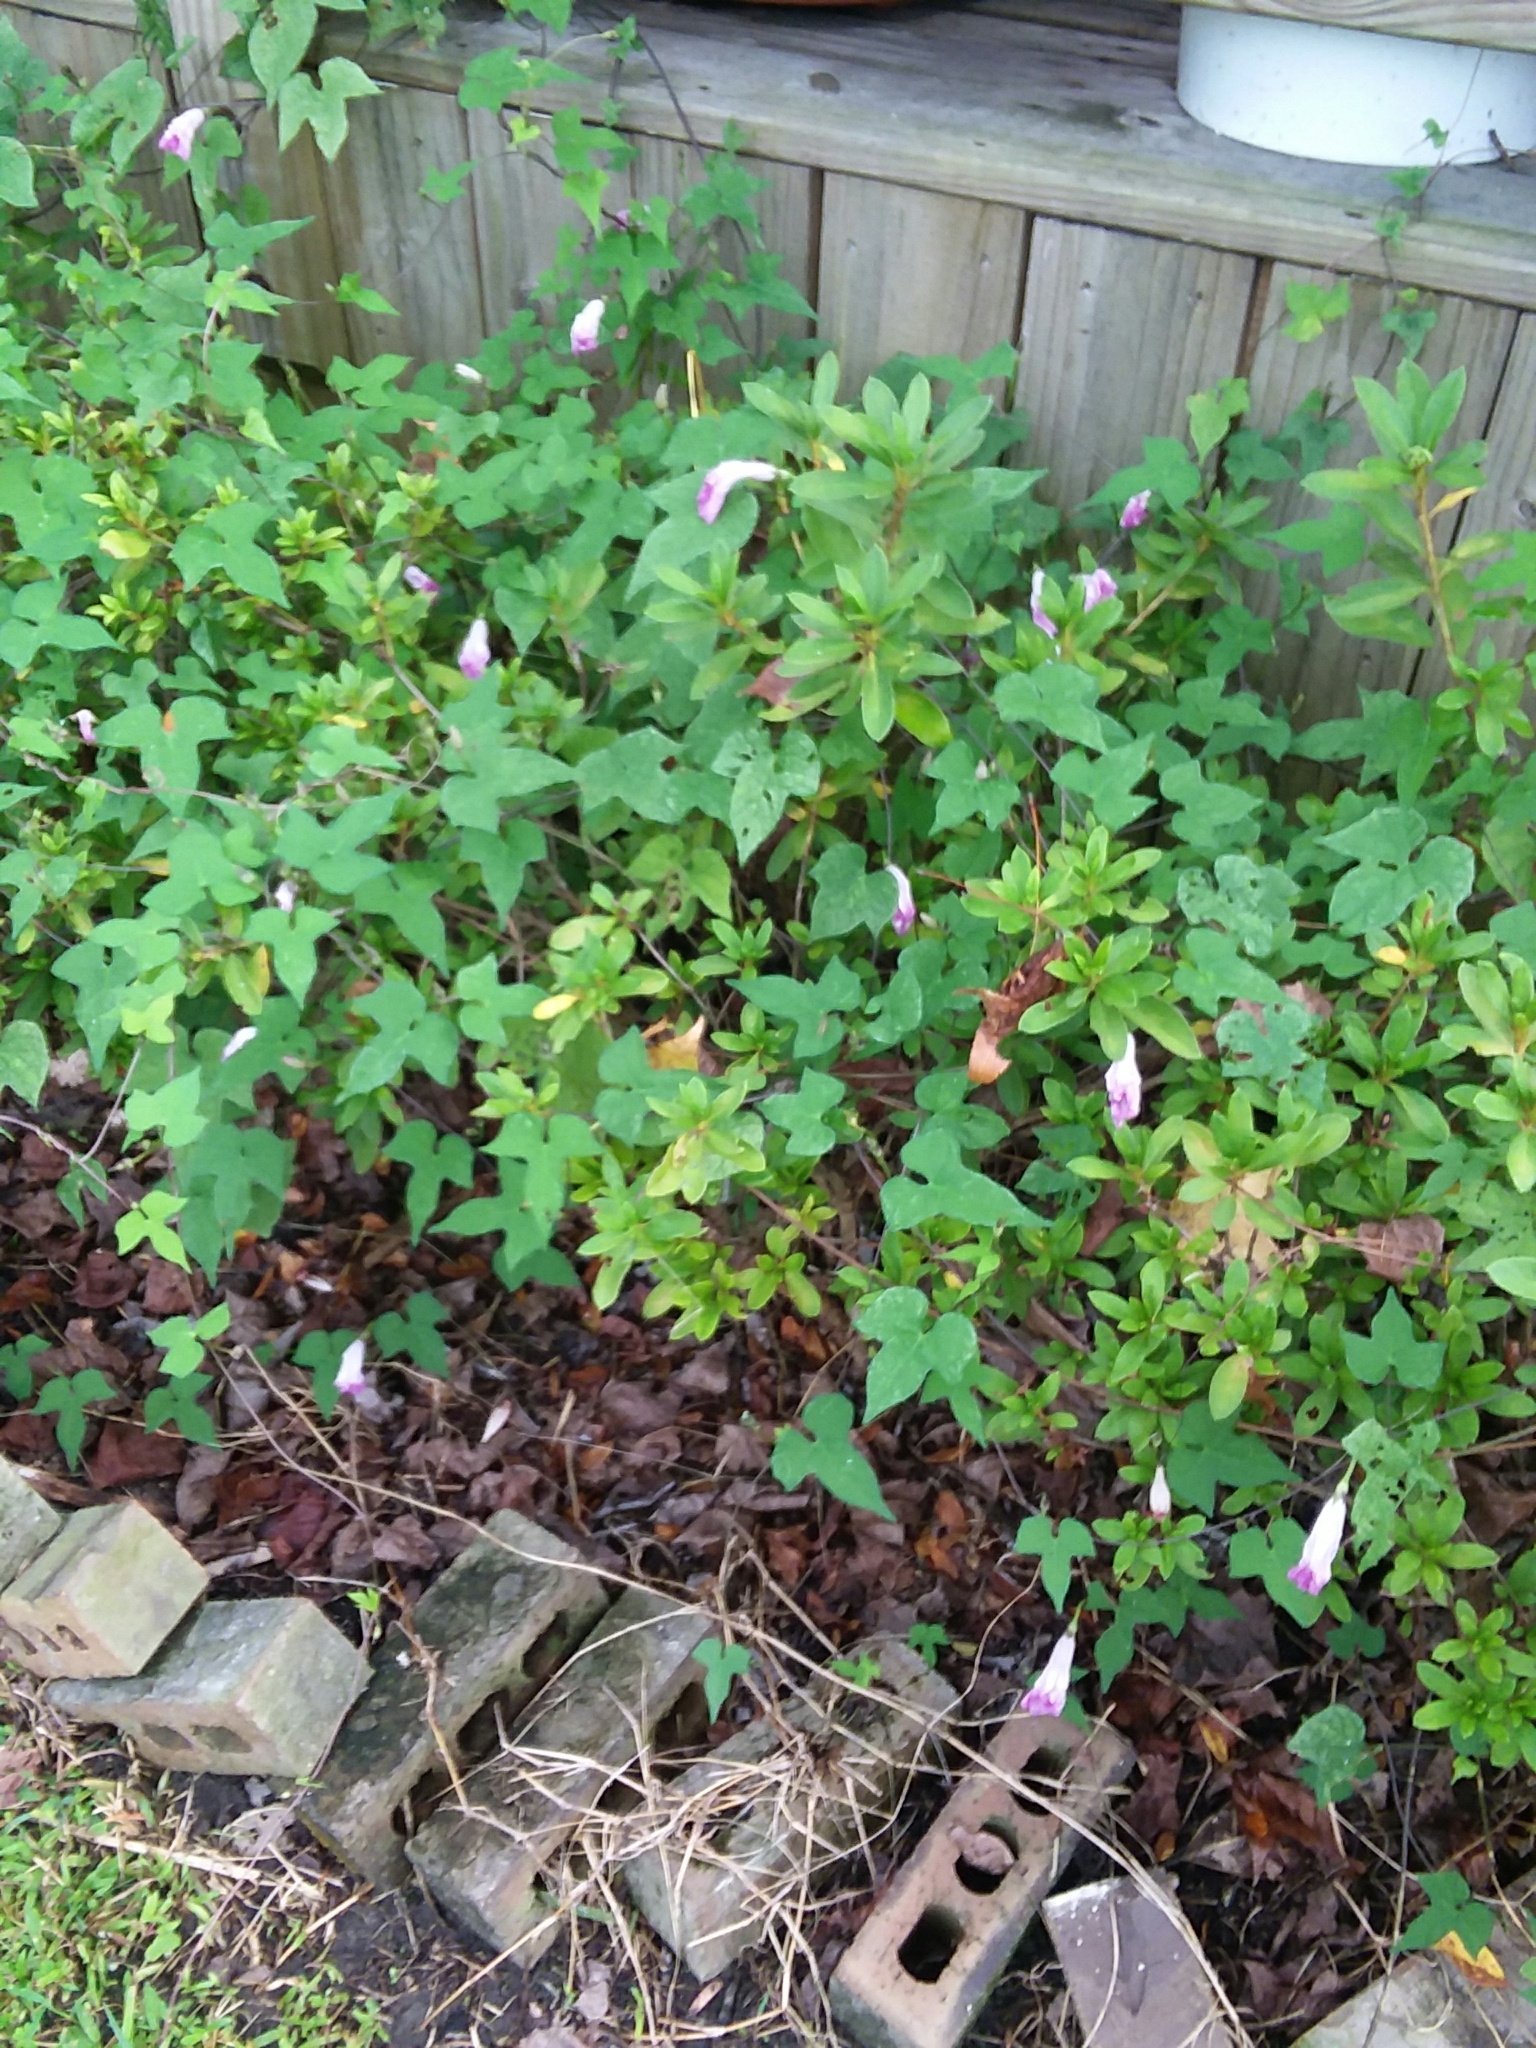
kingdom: Plantae
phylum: Tracheophyta
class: Magnoliopsida
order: Solanales
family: Convolvulaceae
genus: Ipomoea
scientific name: Ipomoea cordatotriloba
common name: Cotton morning glory
